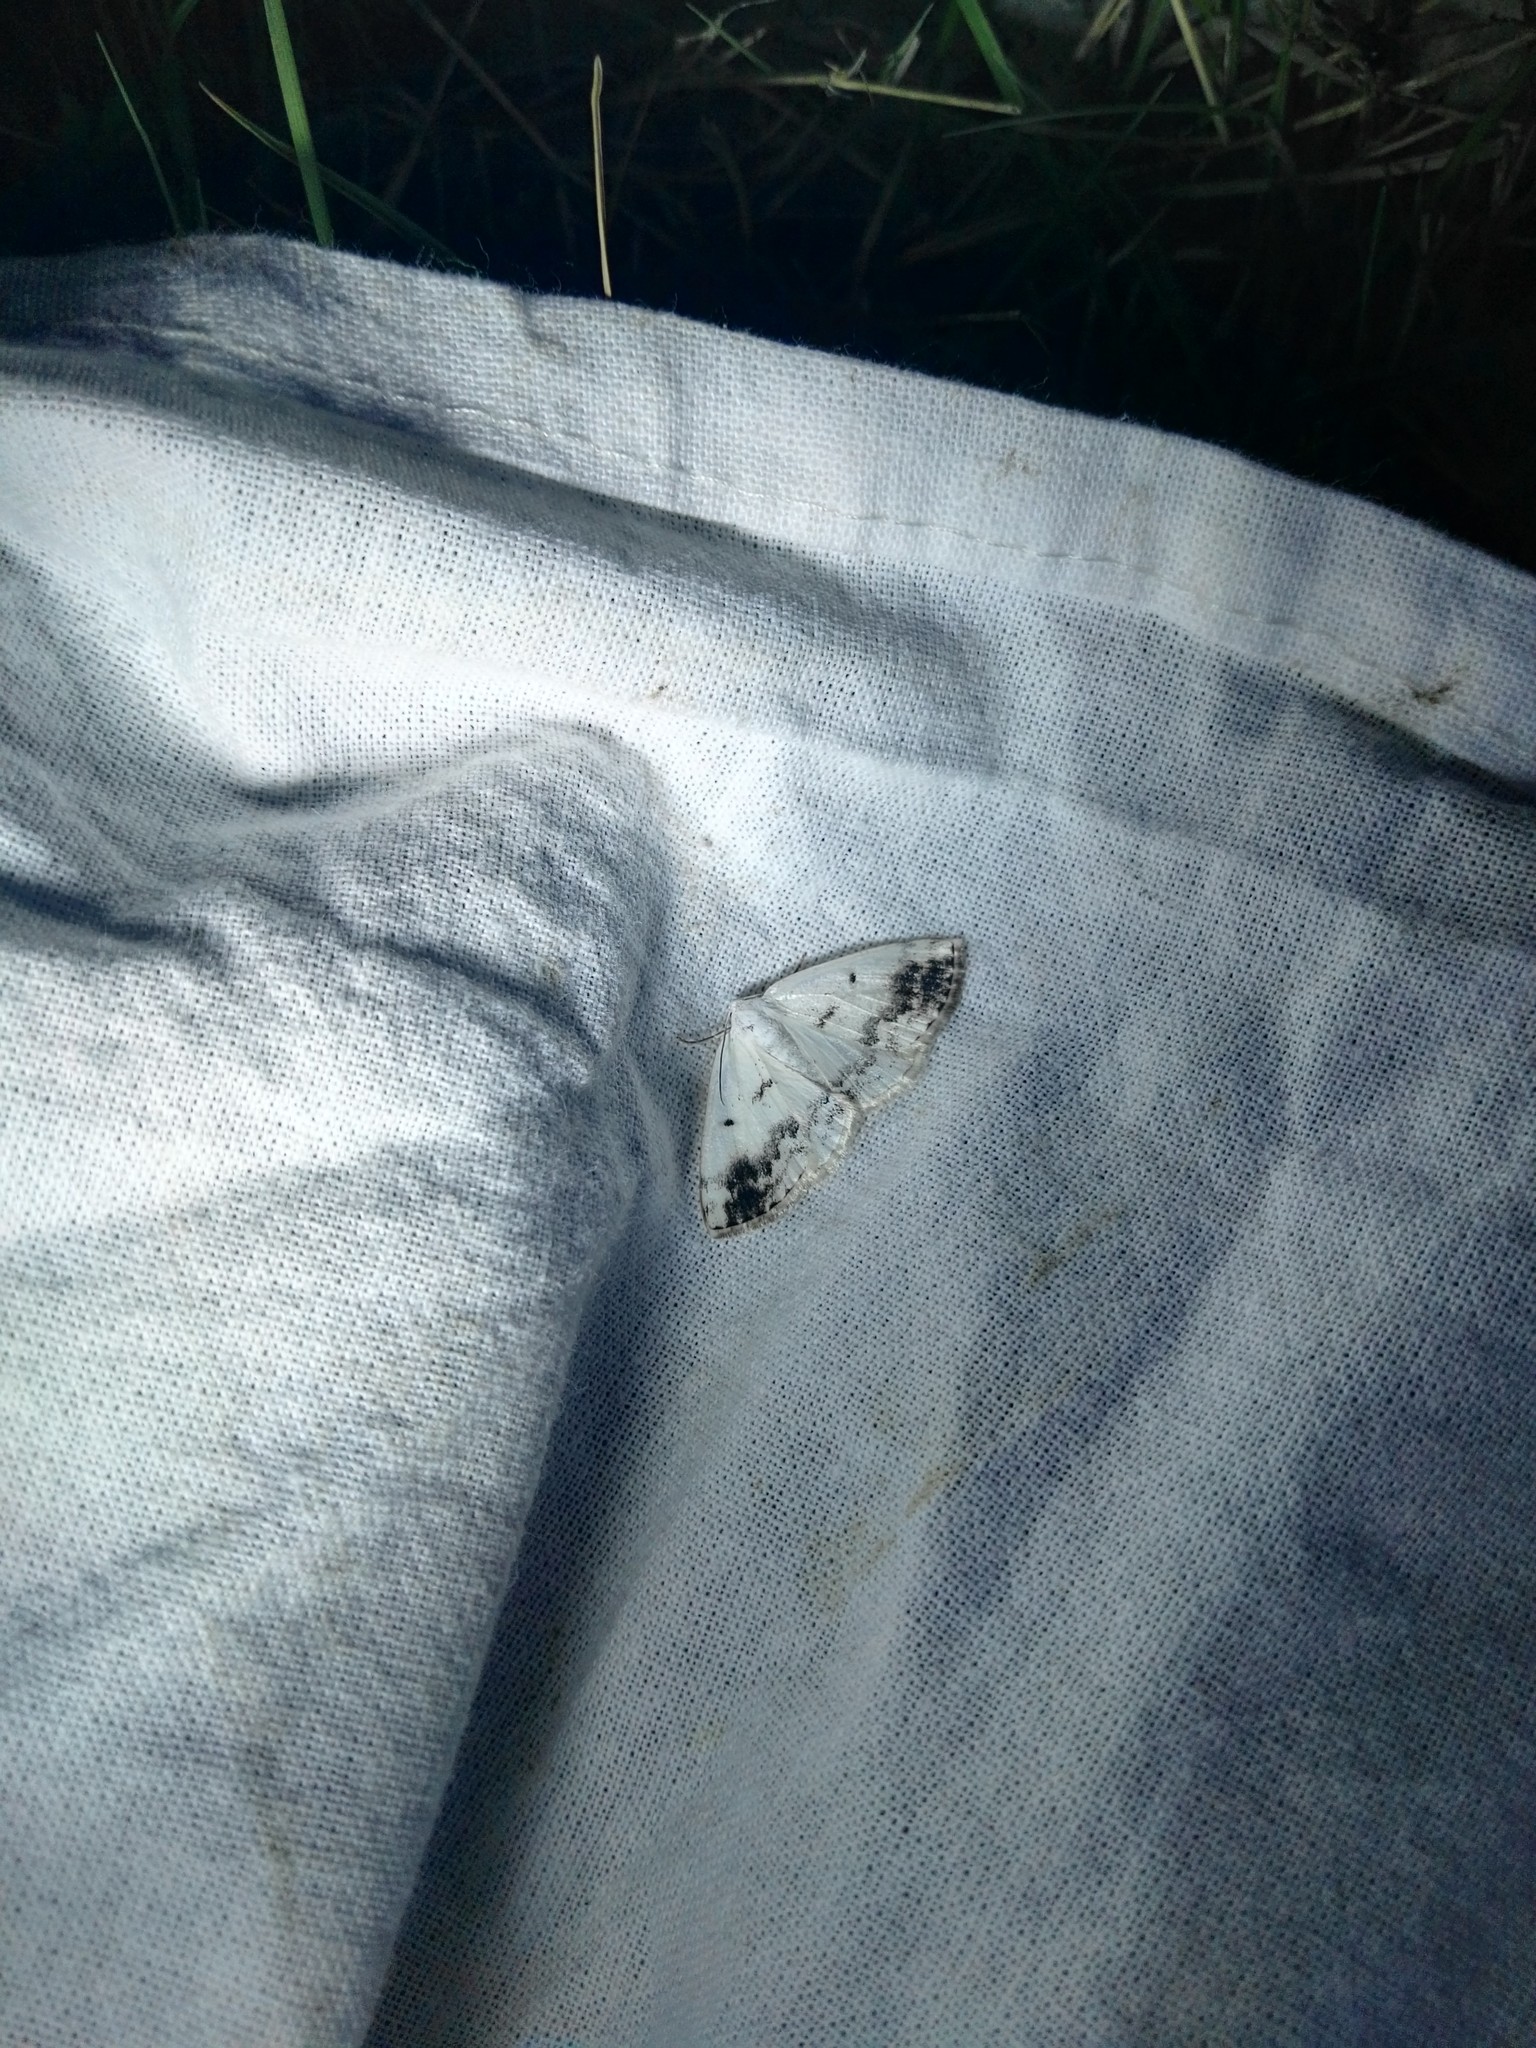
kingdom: Animalia
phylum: Arthropoda
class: Insecta
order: Lepidoptera
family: Geometridae
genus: Lomographa
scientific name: Lomographa temerata
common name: Clouded silver
